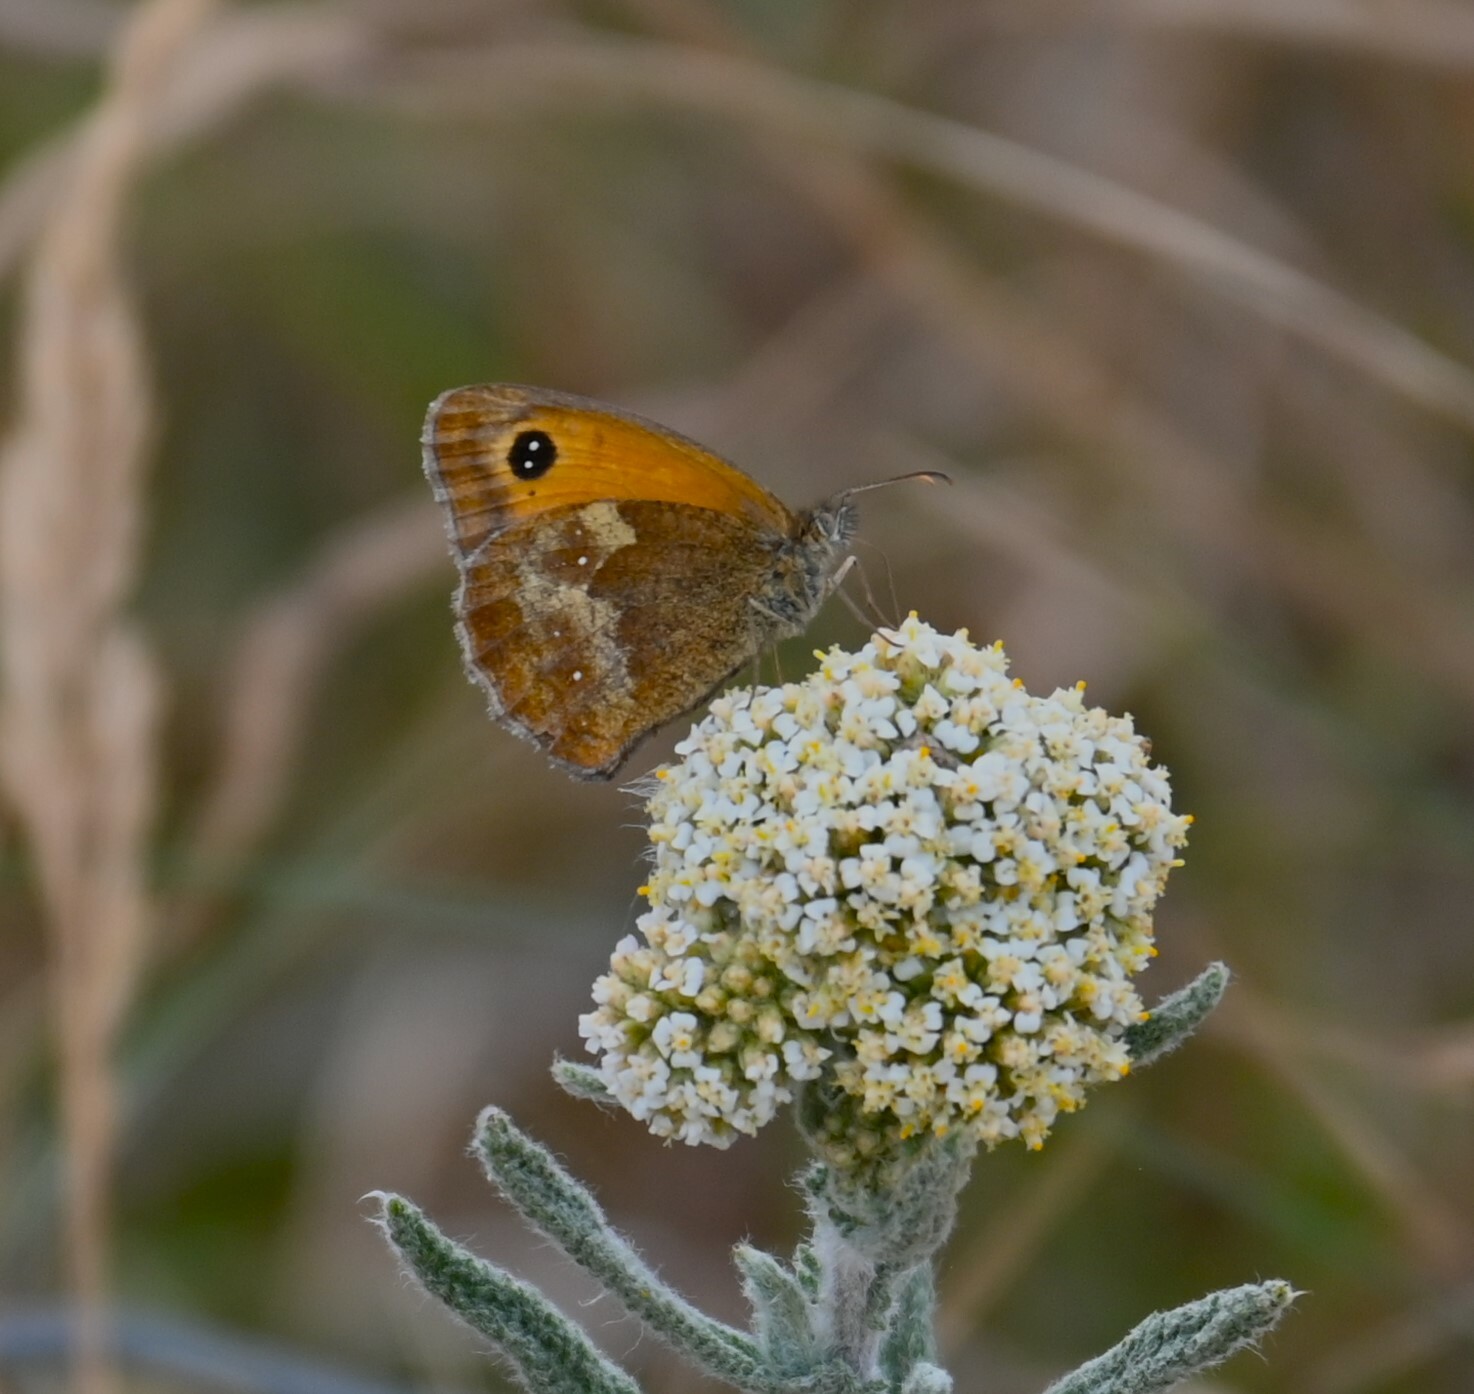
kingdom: Animalia
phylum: Arthropoda
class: Insecta
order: Lepidoptera
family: Nymphalidae
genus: Pyronia
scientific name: Pyronia tithonus
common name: Gatekeeper
